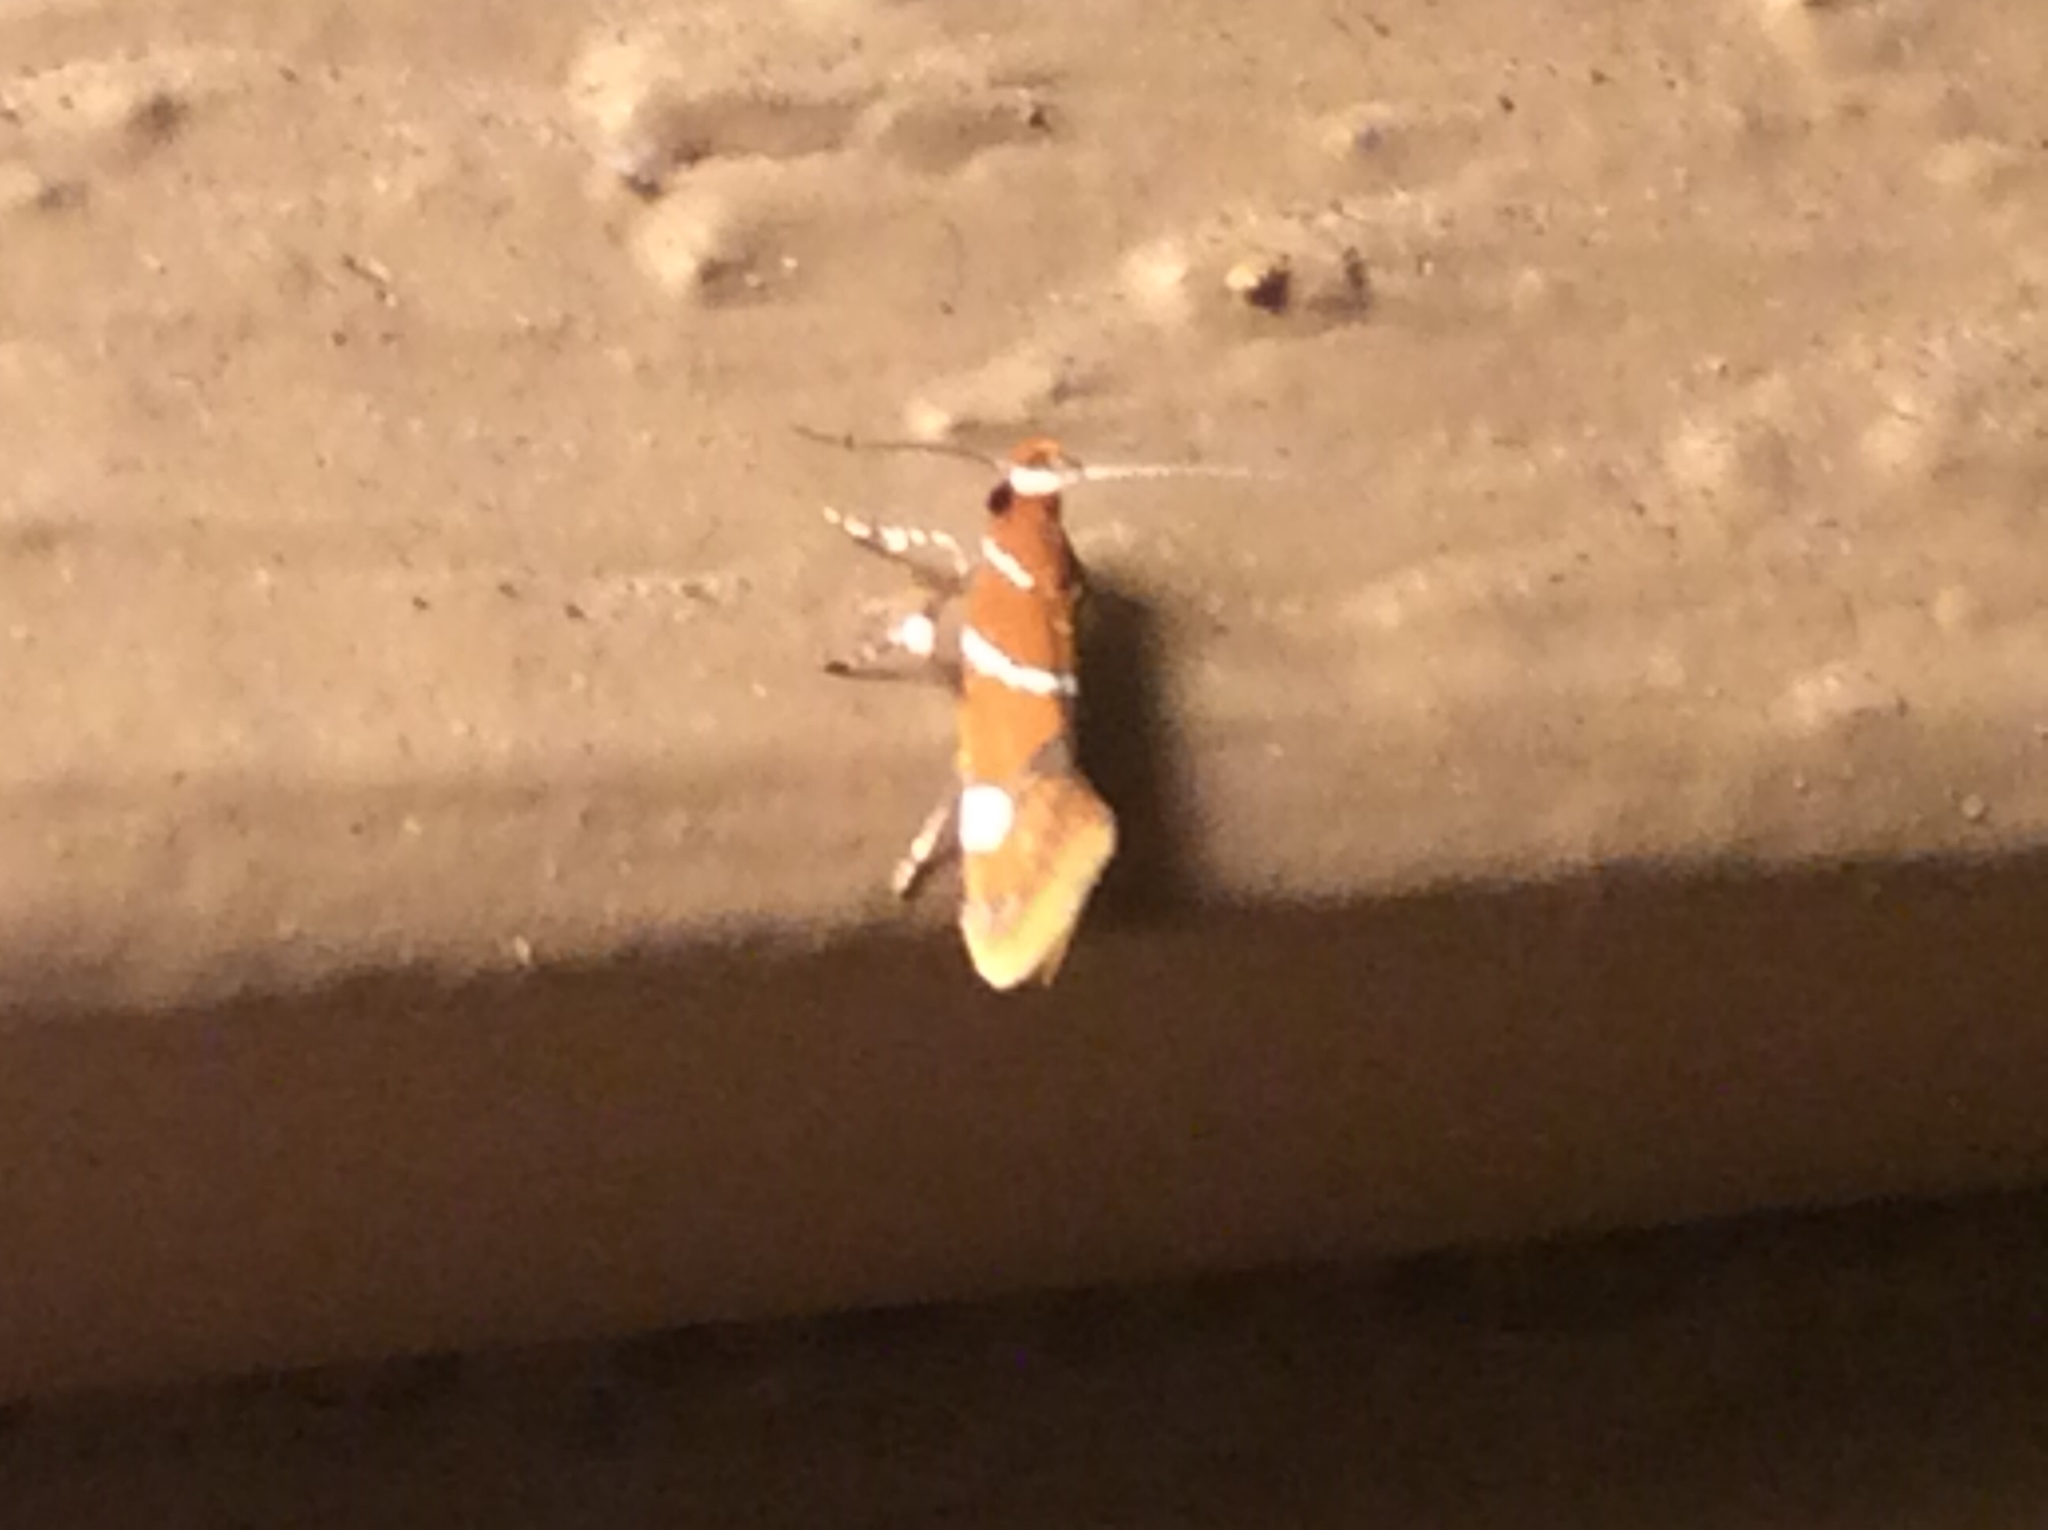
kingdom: Animalia
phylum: Arthropoda
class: Insecta
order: Lepidoptera
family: Oecophoridae
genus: Promalactis
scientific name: Promalactis suzukiella
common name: Moth
